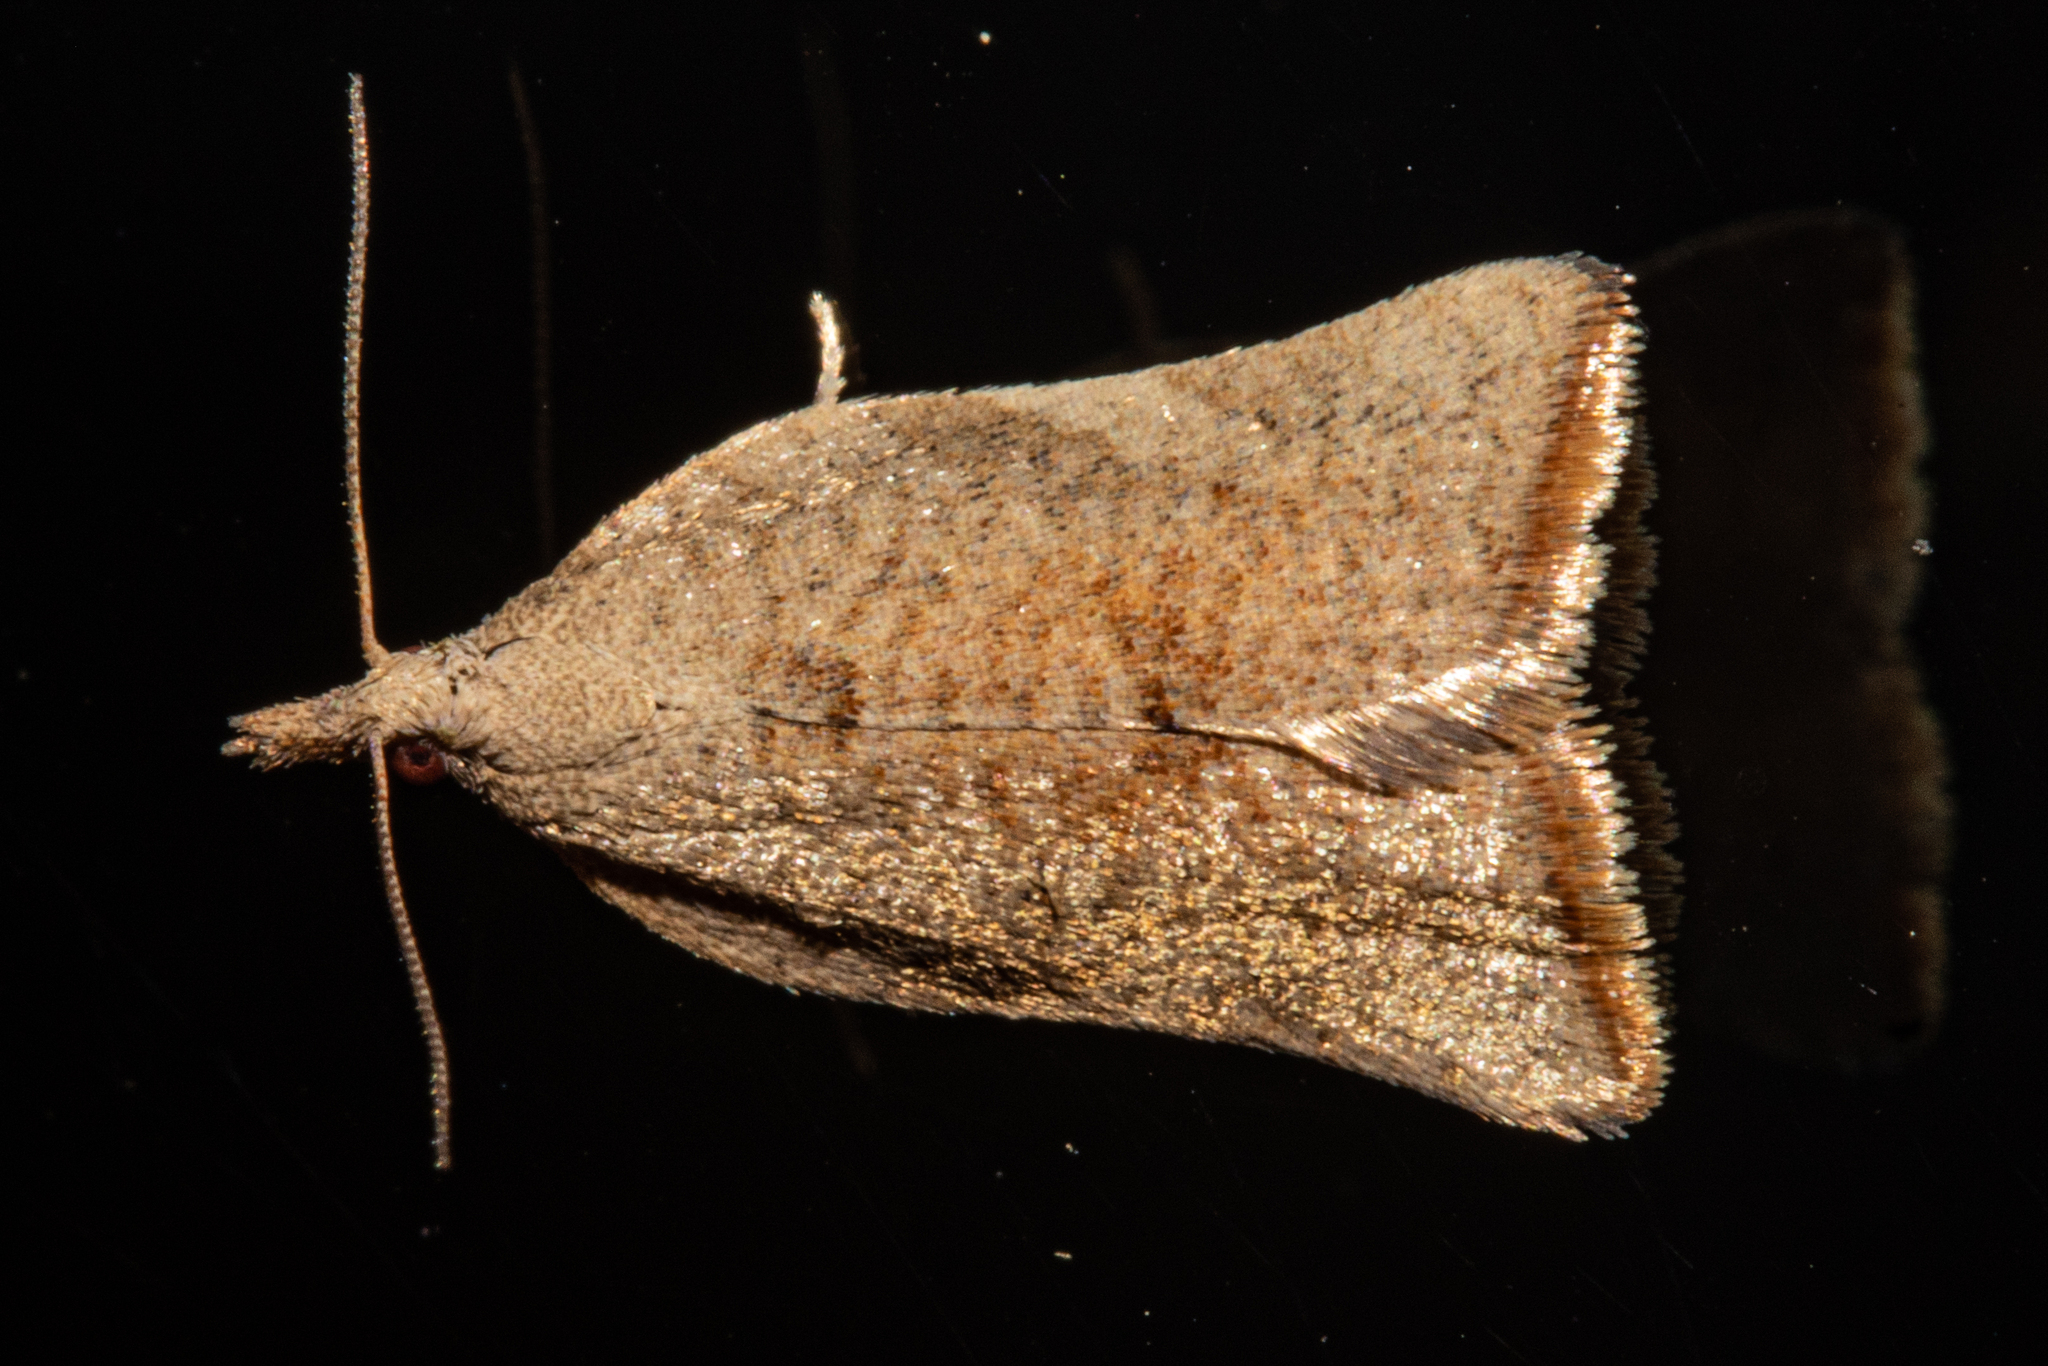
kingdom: Animalia
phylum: Arthropoda
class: Insecta
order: Lepidoptera
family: Tortricidae
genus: Catamacta
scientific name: Catamacta gavisana
